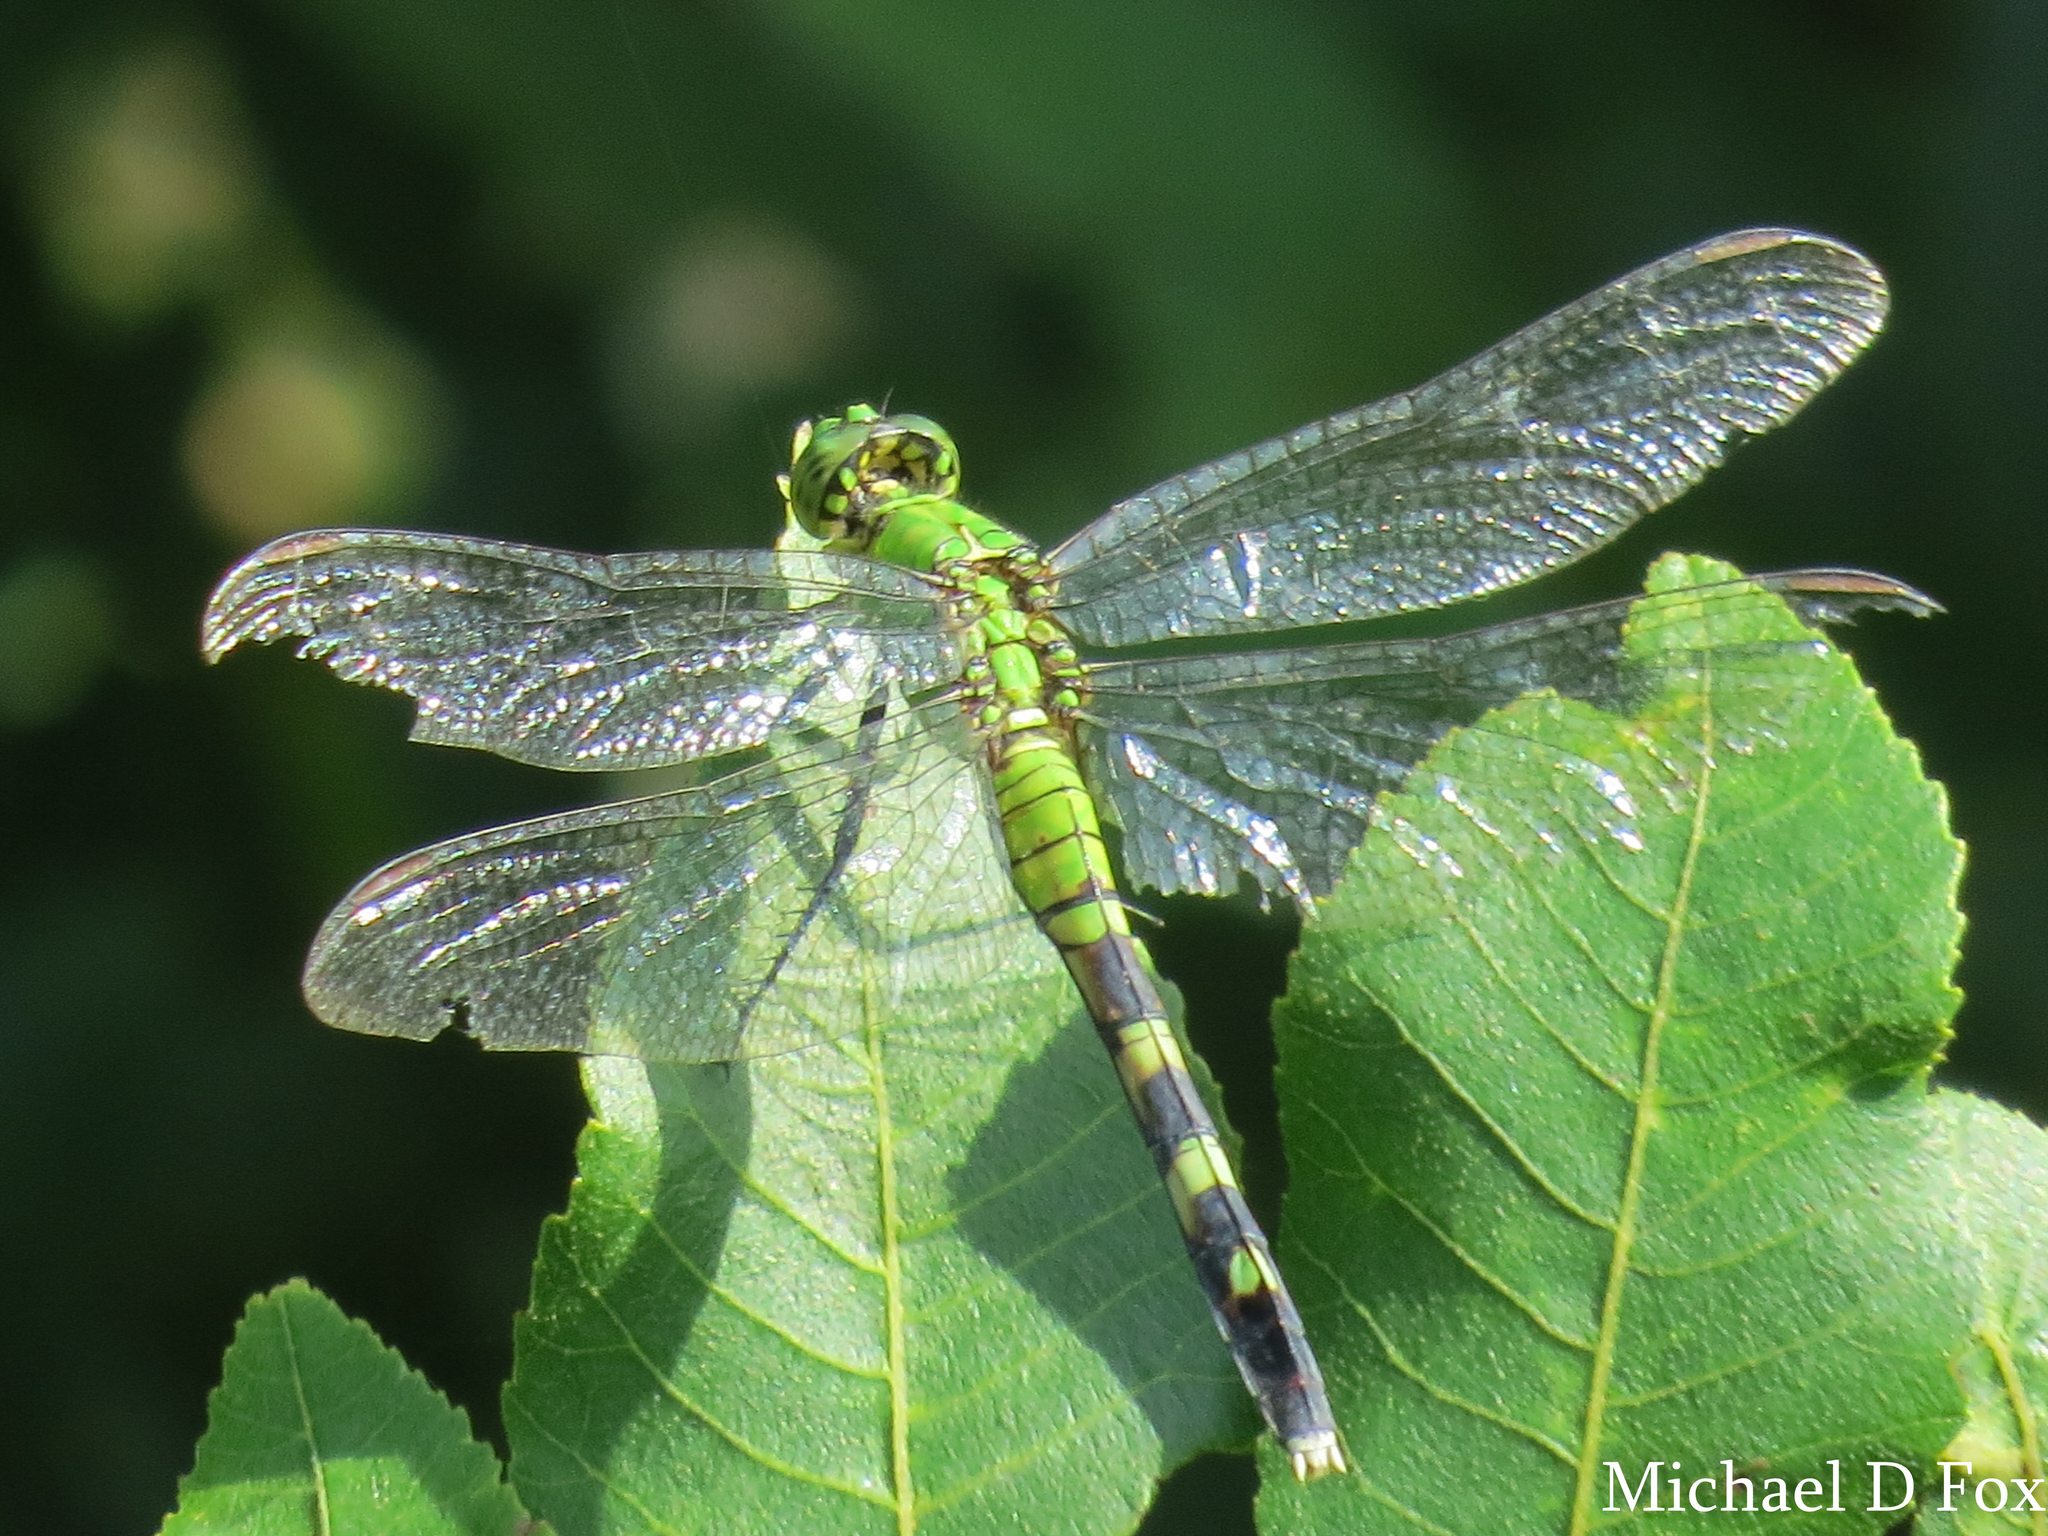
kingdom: Animalia
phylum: Arthropoda
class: Insecta
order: Odonata
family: Libellulidae
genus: Erythemis
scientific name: Erythemis simplicicollis
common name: Eastern pondhawk
